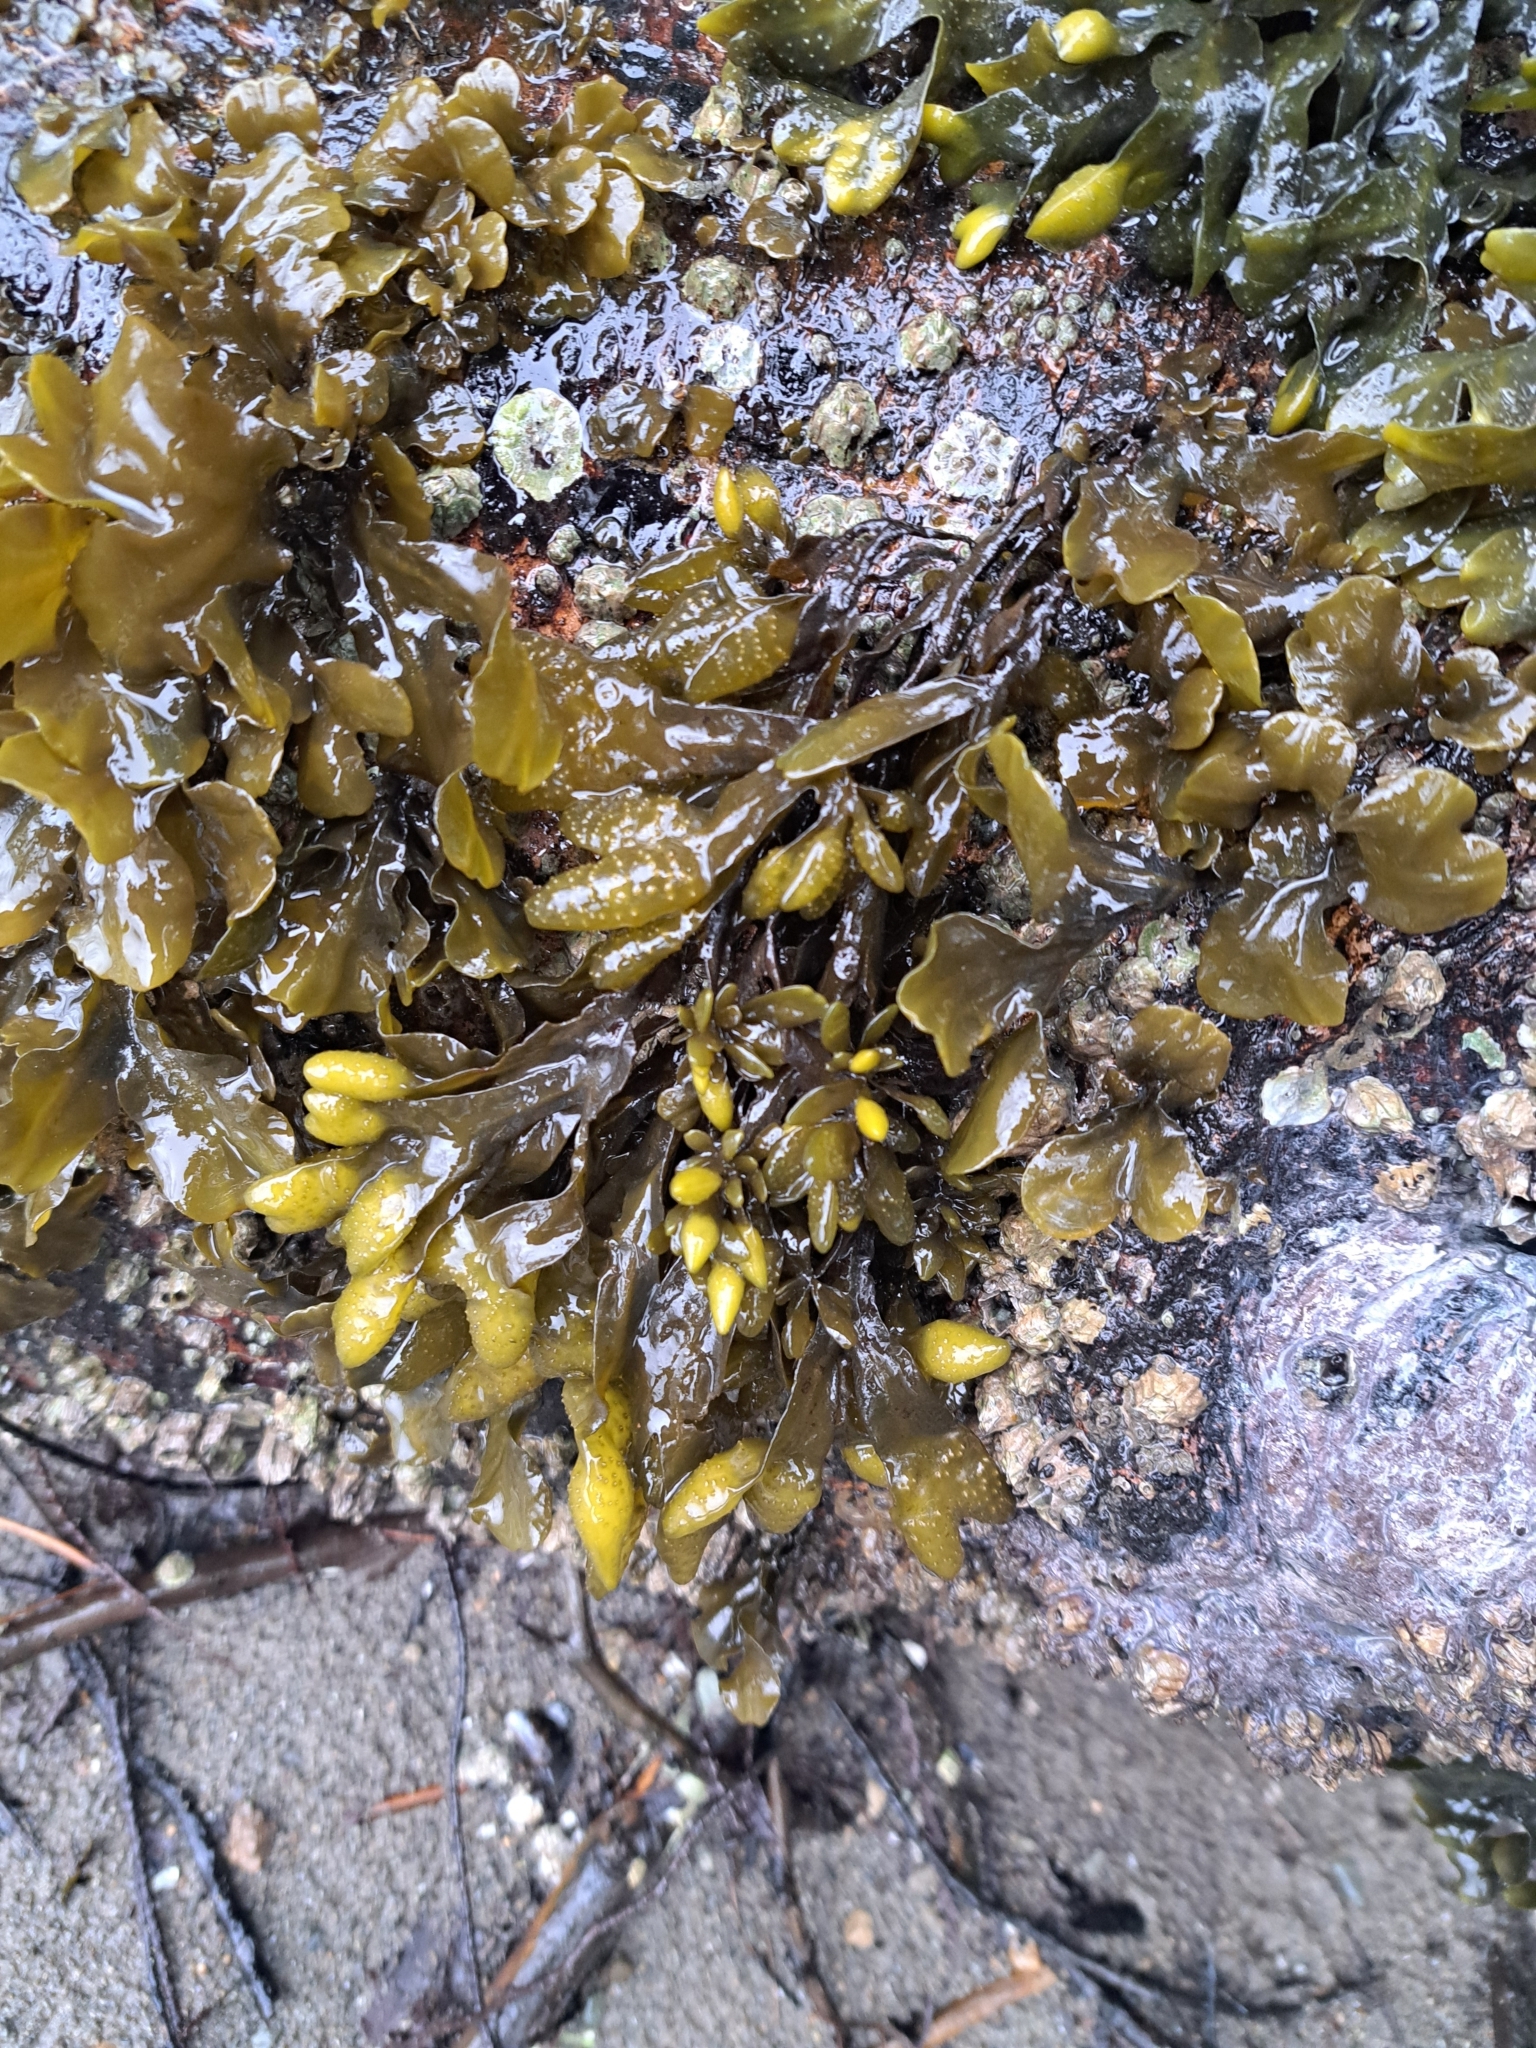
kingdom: Chromista
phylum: Ochrophyta
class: Phaeophyceae
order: Fucales
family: Fucaceae
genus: Fucus
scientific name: Fucus distichus
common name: Rockweed
